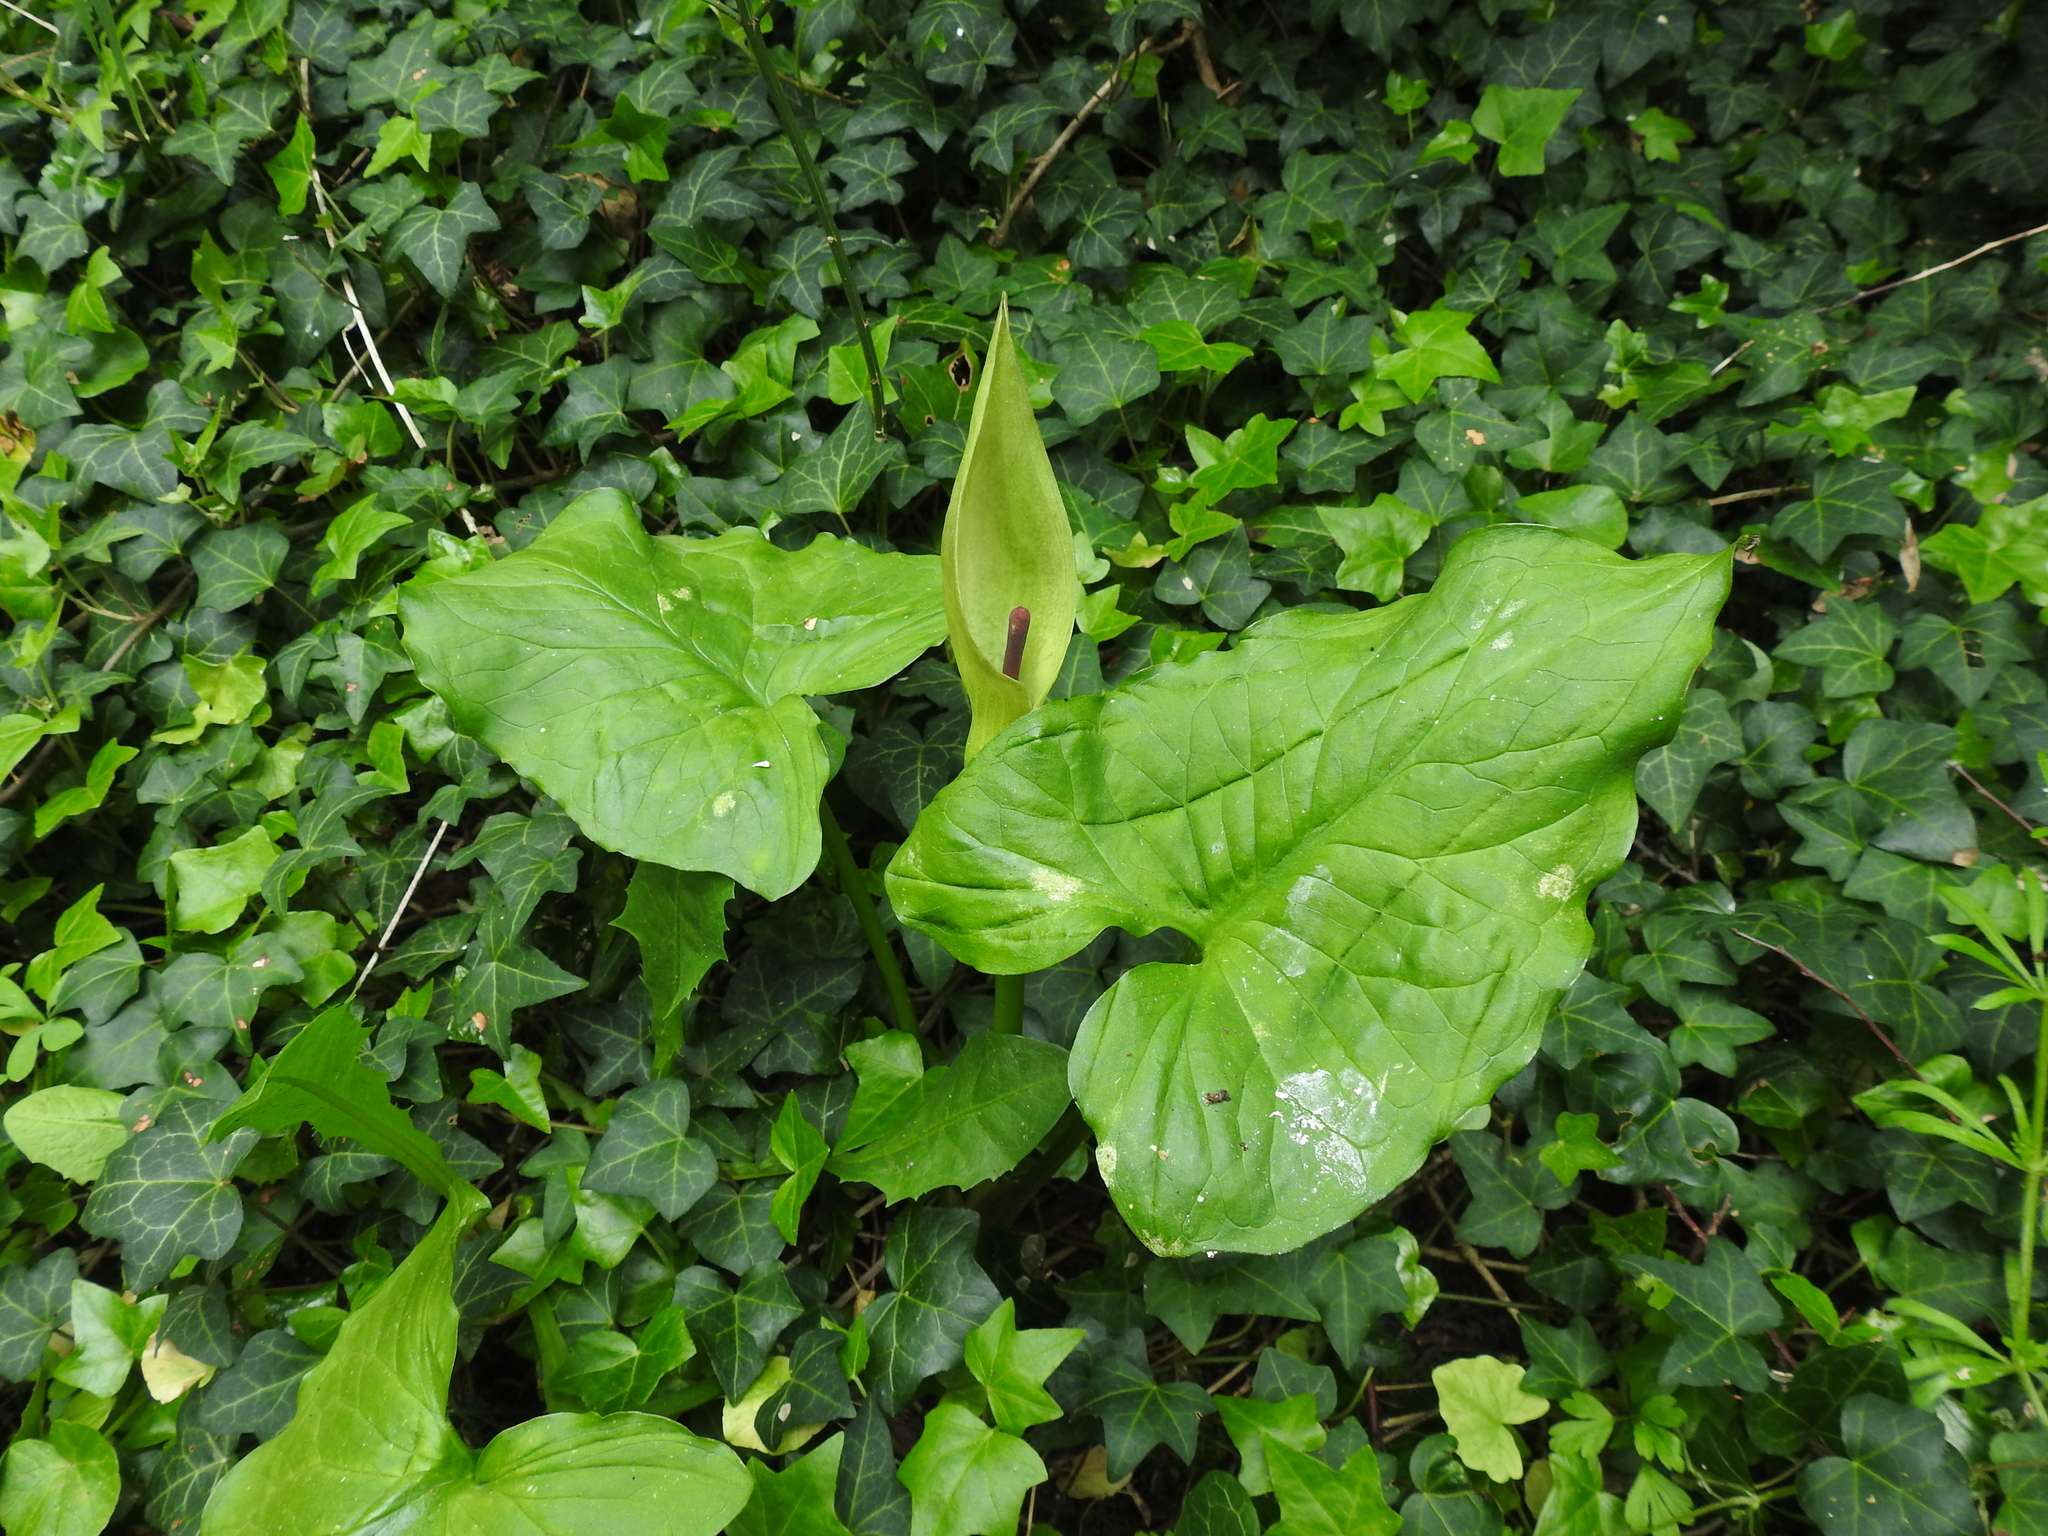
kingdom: Plantae
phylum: Tracheophyta
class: Liliopsida
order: Alismatales
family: Araceae
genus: Arum
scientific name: Arum maculatum
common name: Lords-and-ladies
